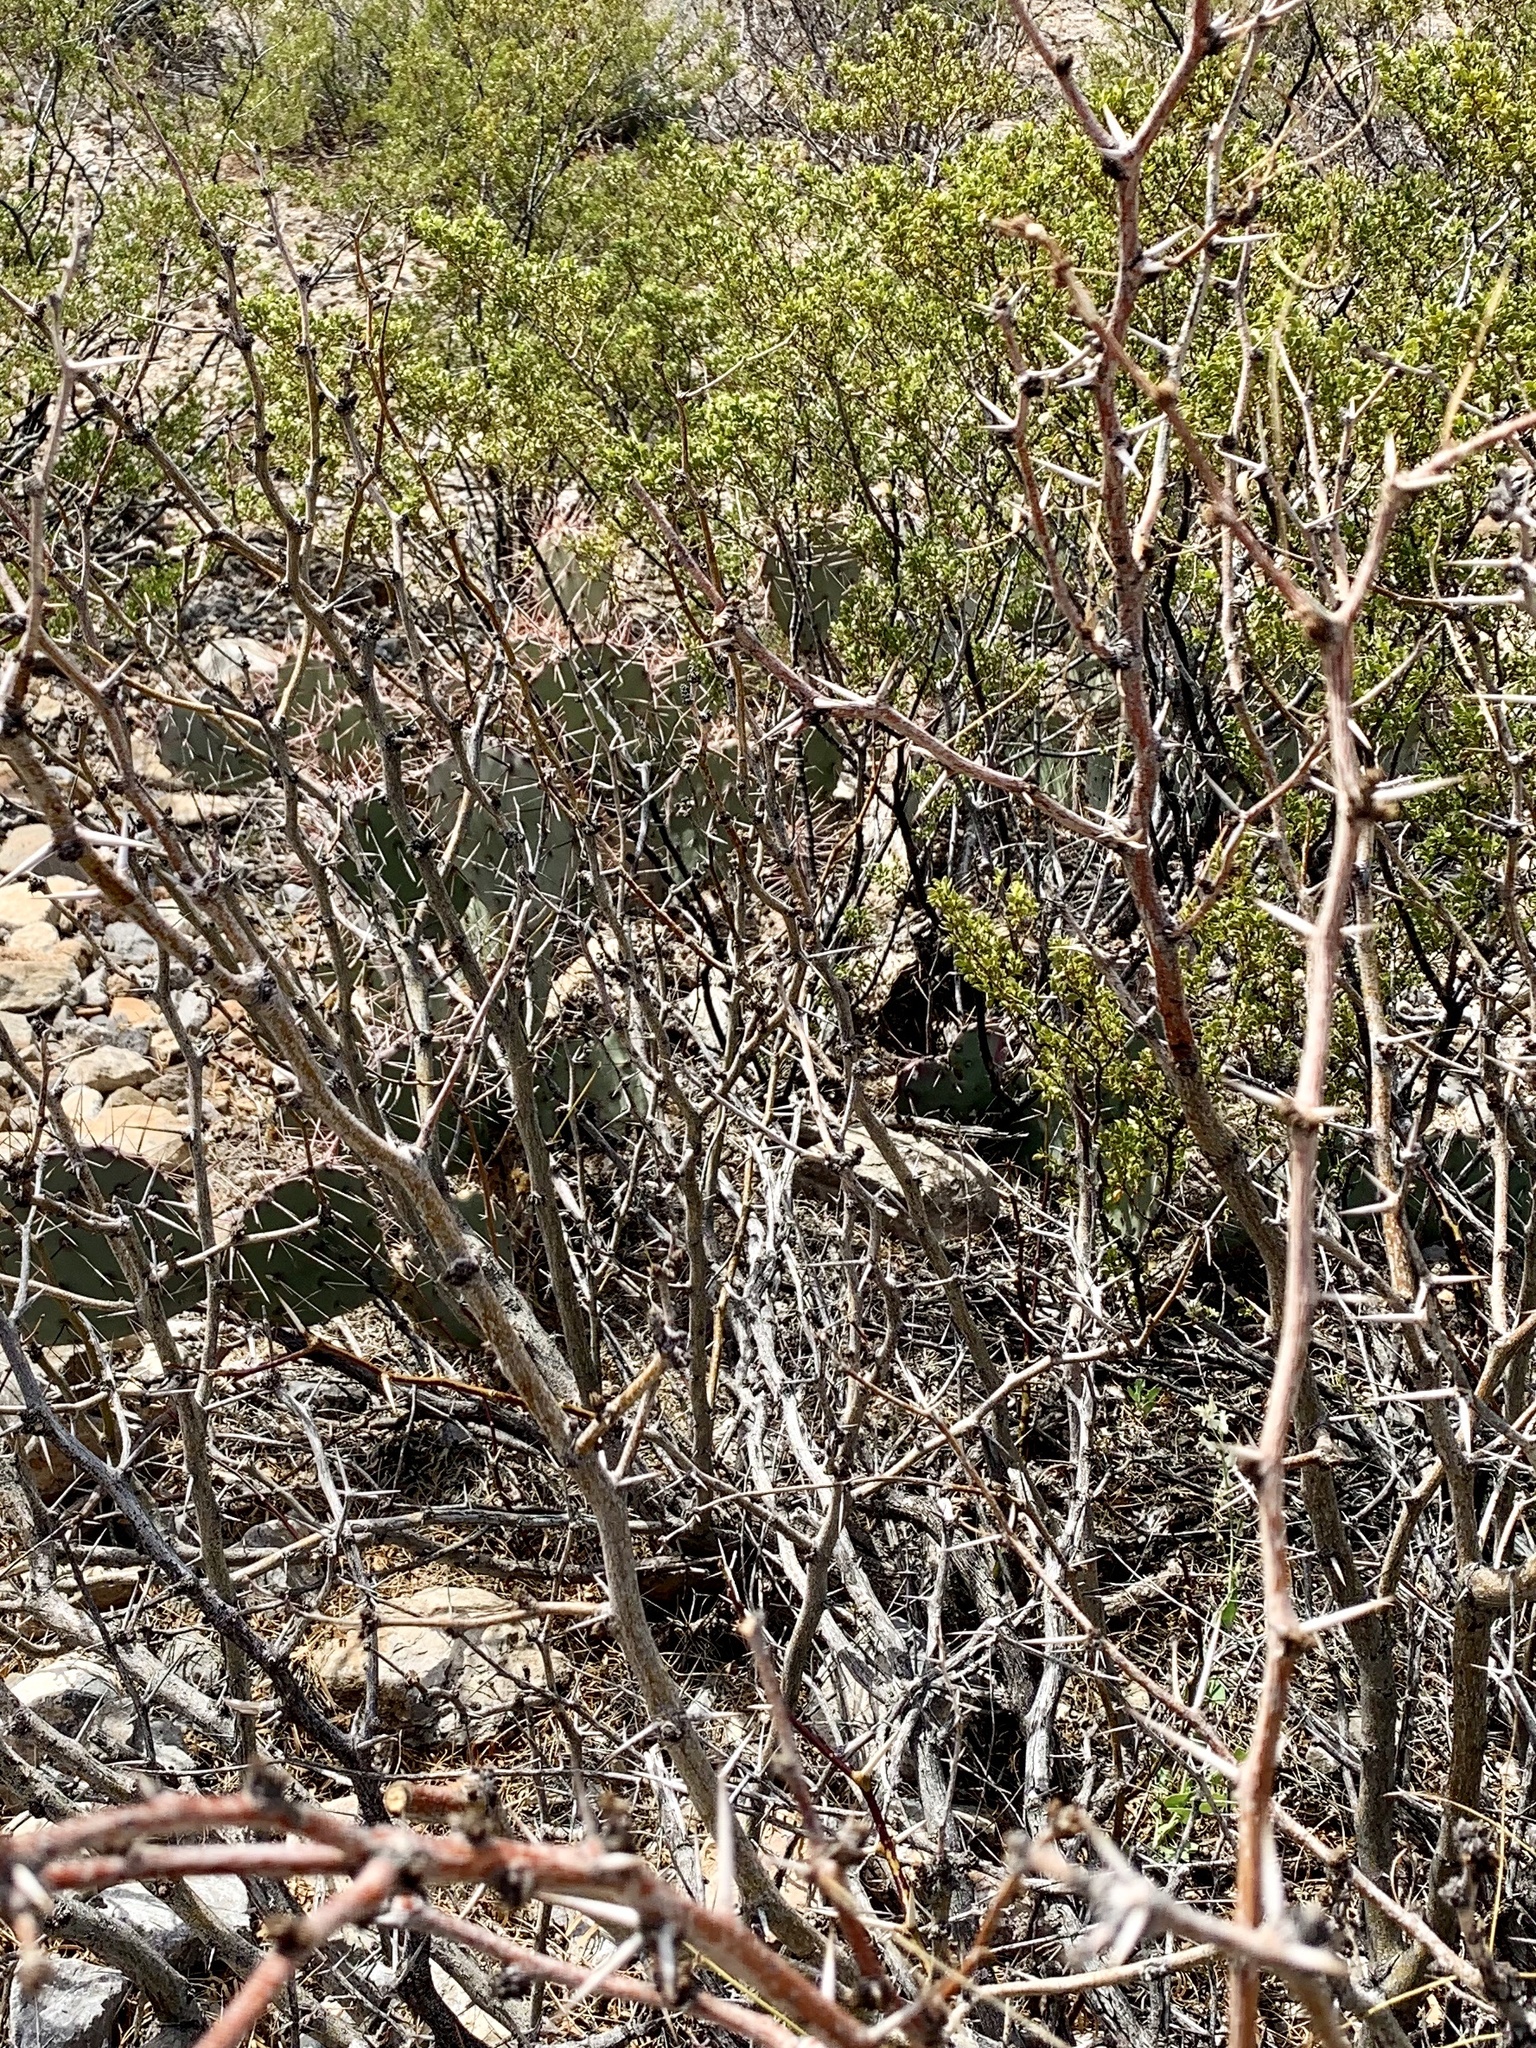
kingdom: Plantae
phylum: Tracheophyta
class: Magnoliopsida
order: Fabales
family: Fabaceae
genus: Prosopis
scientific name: Prosopis glandulosa
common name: Honey mesquite
